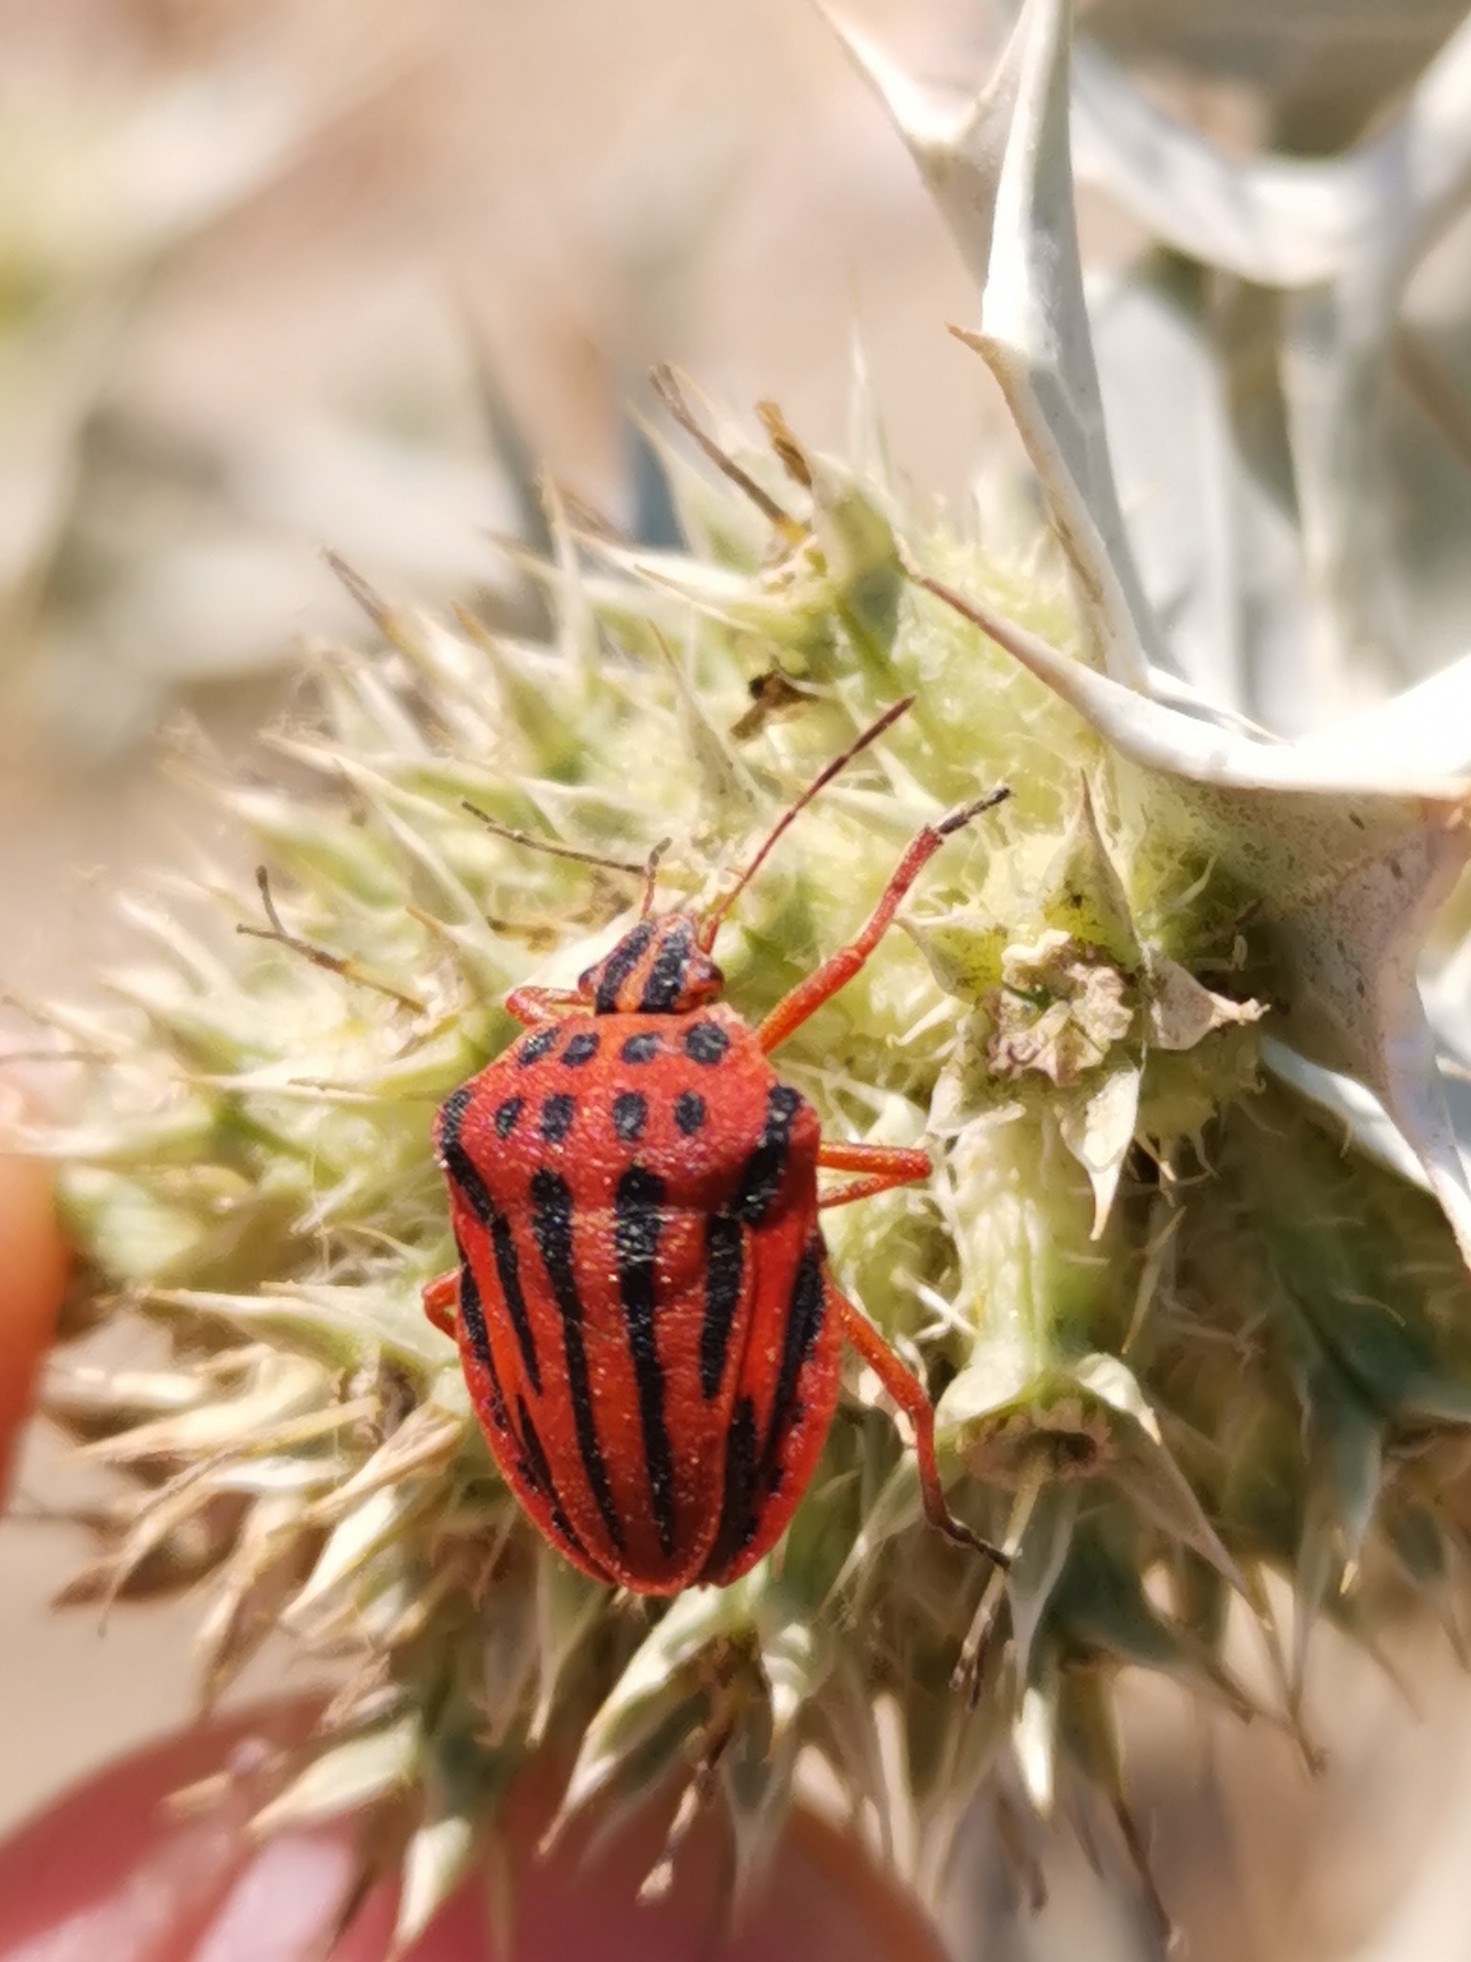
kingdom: Animalia
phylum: Arthropoda
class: Insecta
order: Hemiptera
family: Pentatomidae
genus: Graphosoma
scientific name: Graphosoma semipunctatum
